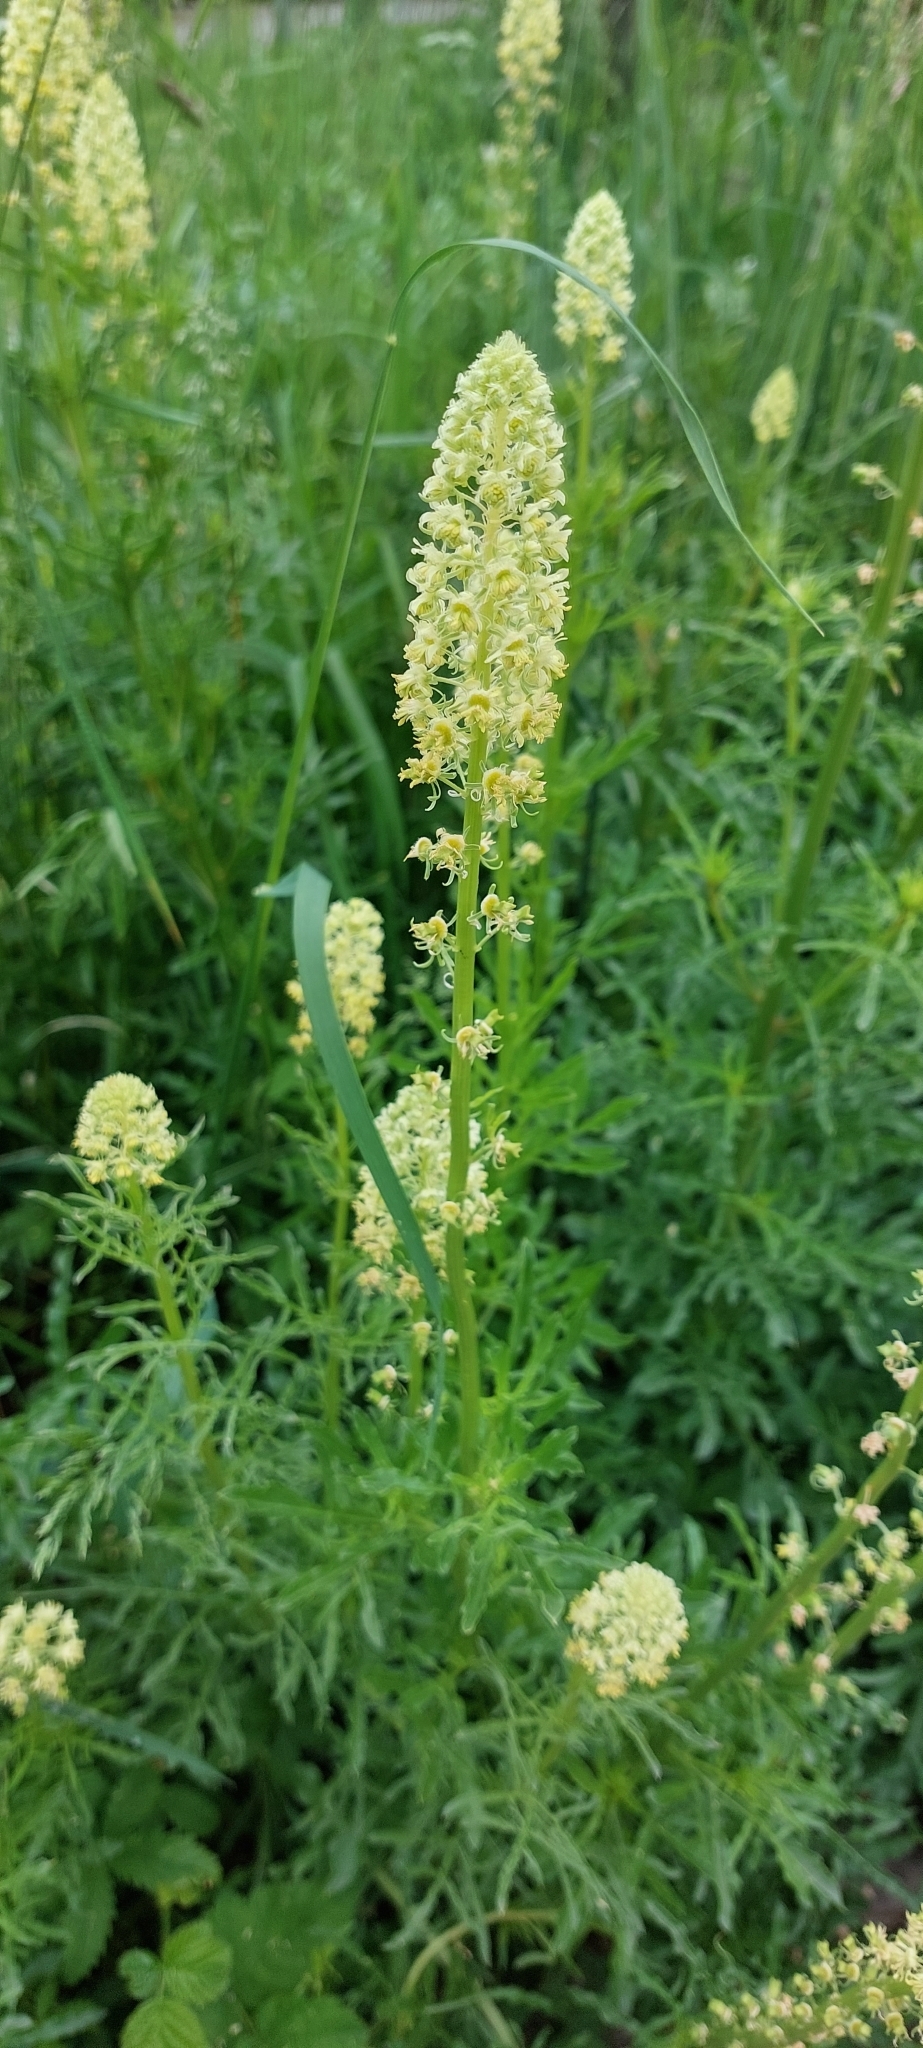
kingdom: Plantae
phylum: Tracheophyta
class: Magnoliopsida
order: Brassicales
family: Resedaceae
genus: Reseda
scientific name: Reseda lutea
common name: Wild mignonette
